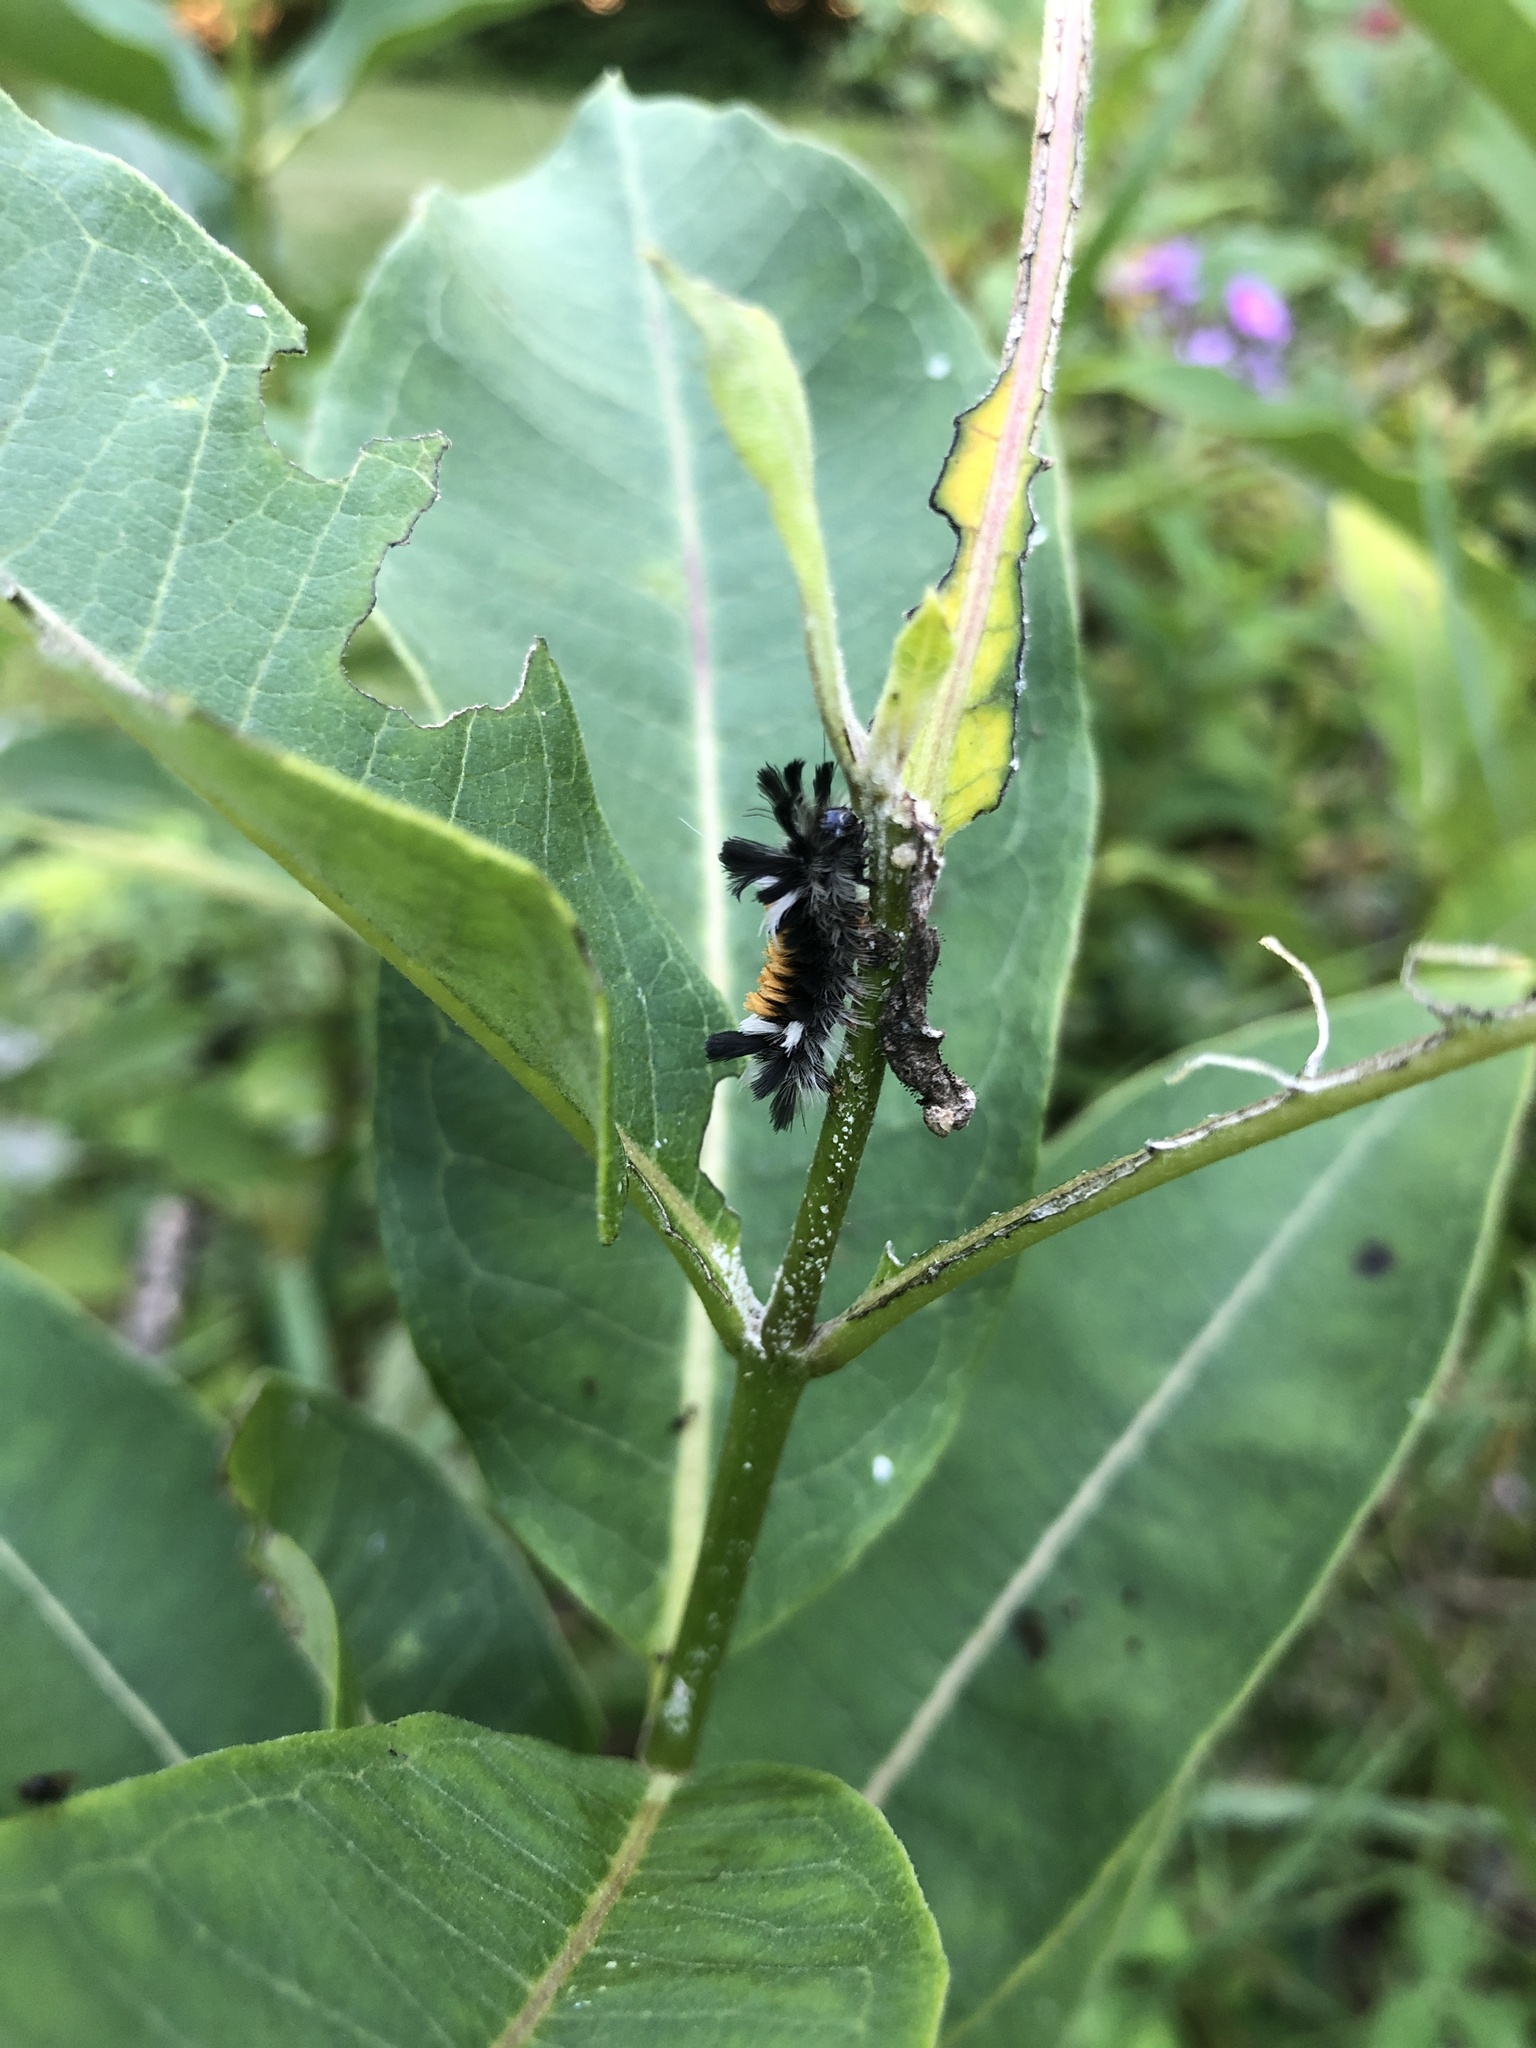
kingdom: Animalia
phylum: Arthropoda
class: Insecta
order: Lepidoptera
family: Erebidae
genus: Euchaetes
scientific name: Euchaetes egle
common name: Milkweed tussock moth
